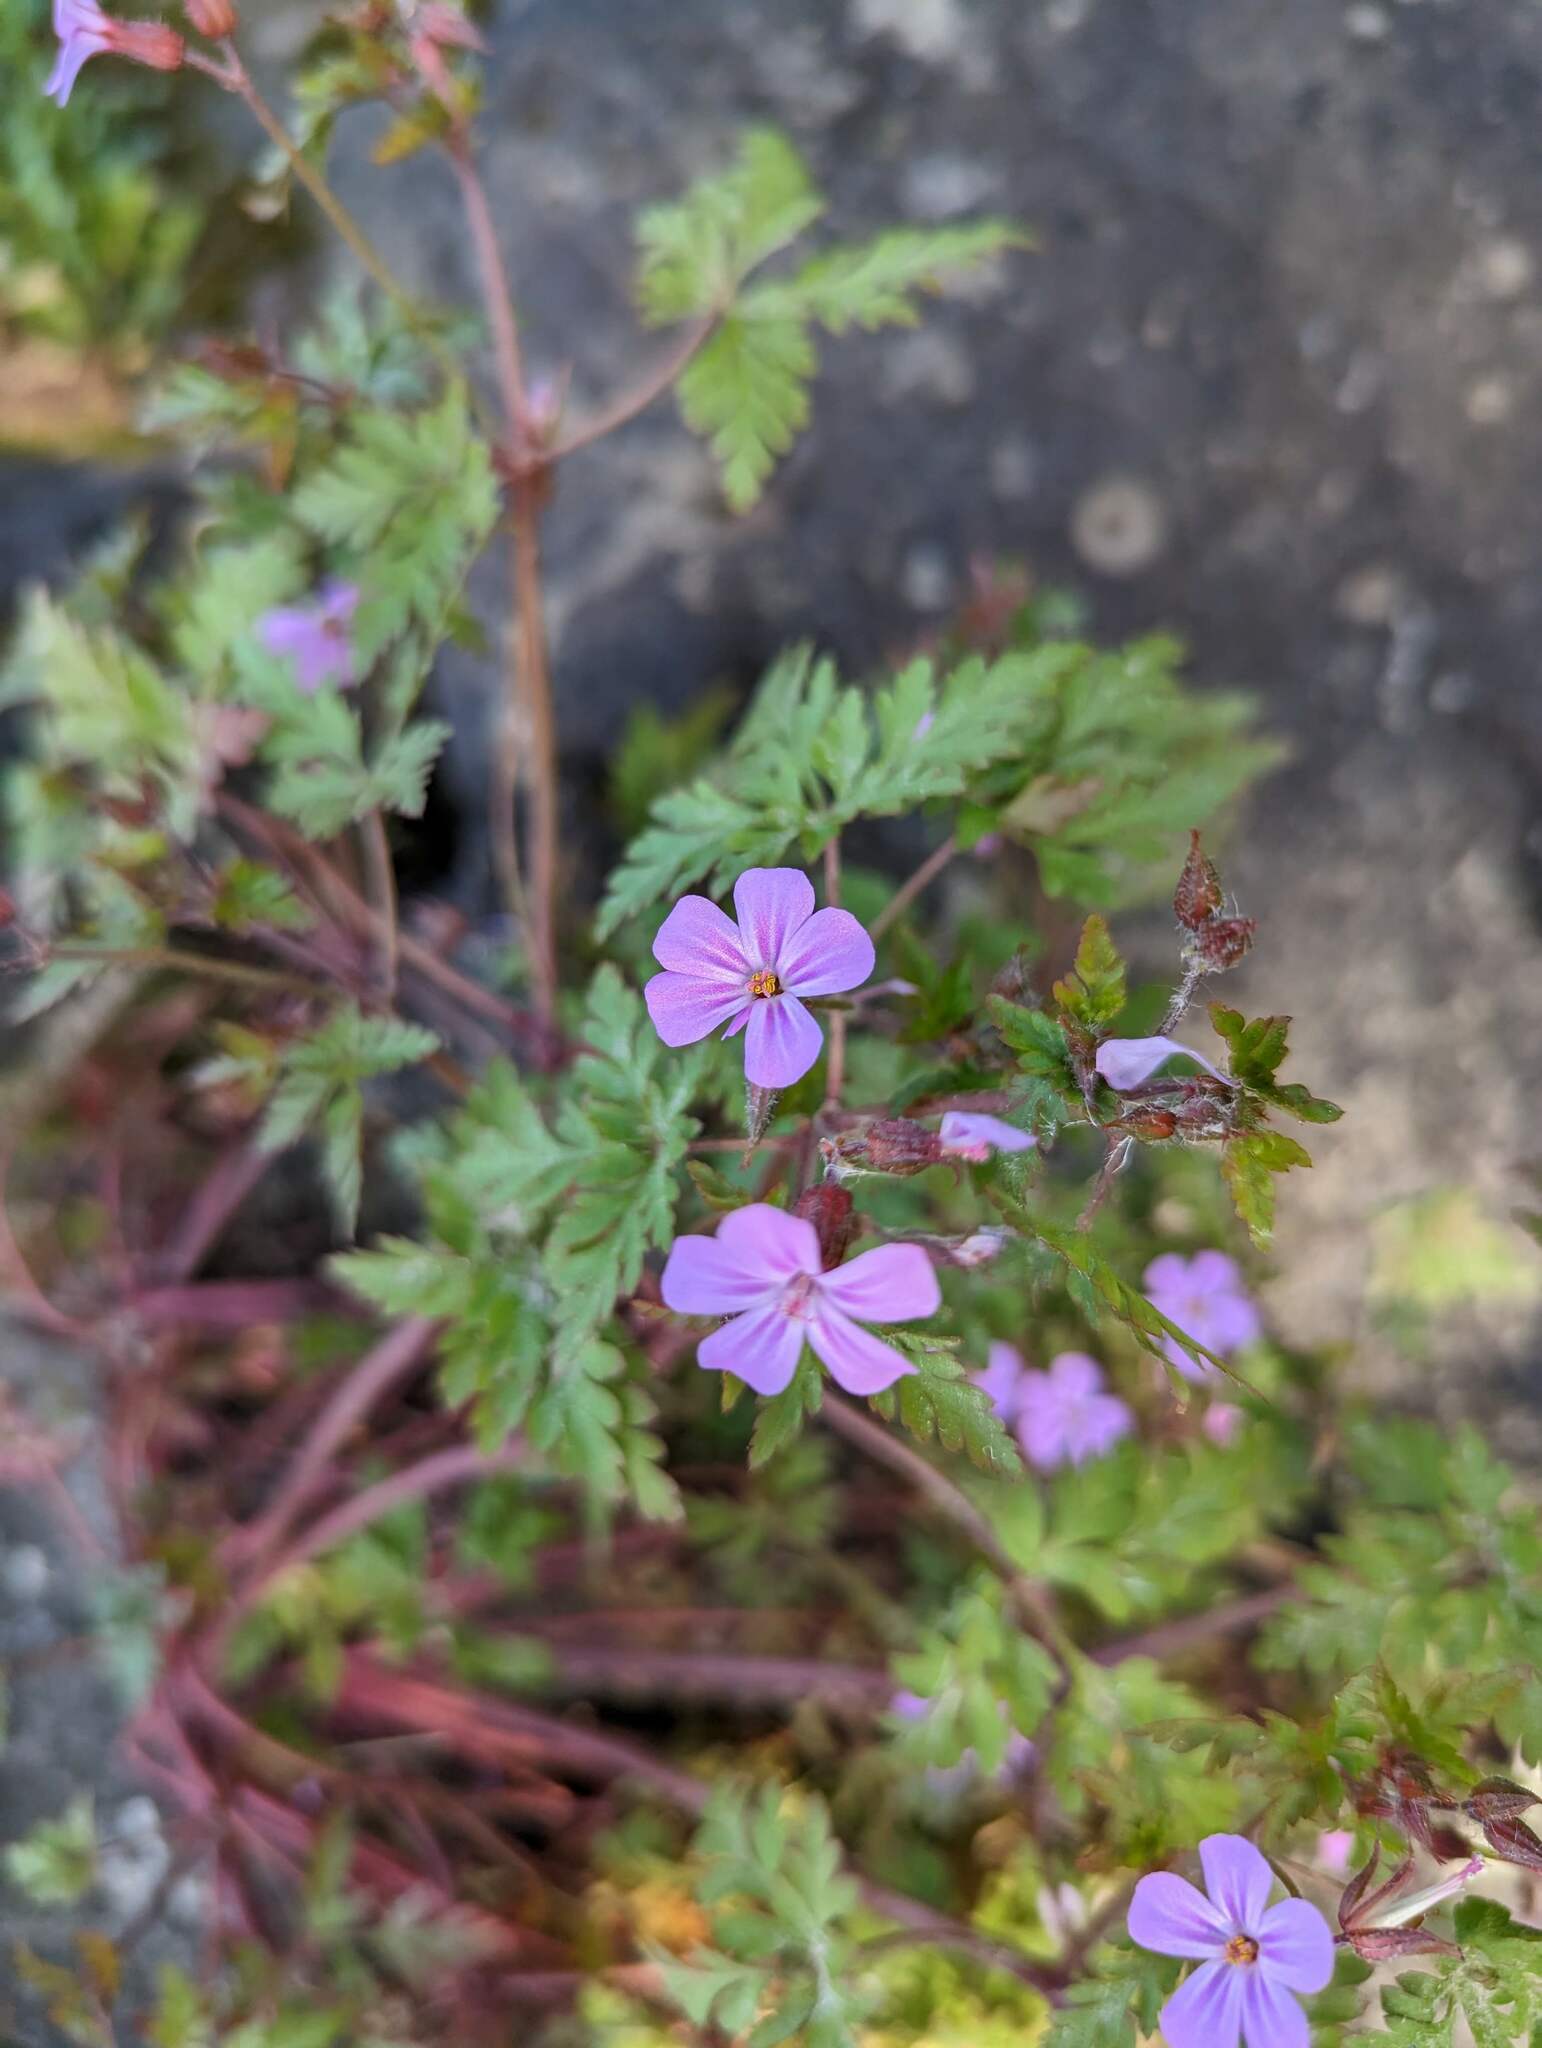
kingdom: Plantae
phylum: Tracheophyta
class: Magnoliopsida
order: Geraniales
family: Geraniaceae
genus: Geranium
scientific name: Geranium robertianum
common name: Herb-robert
